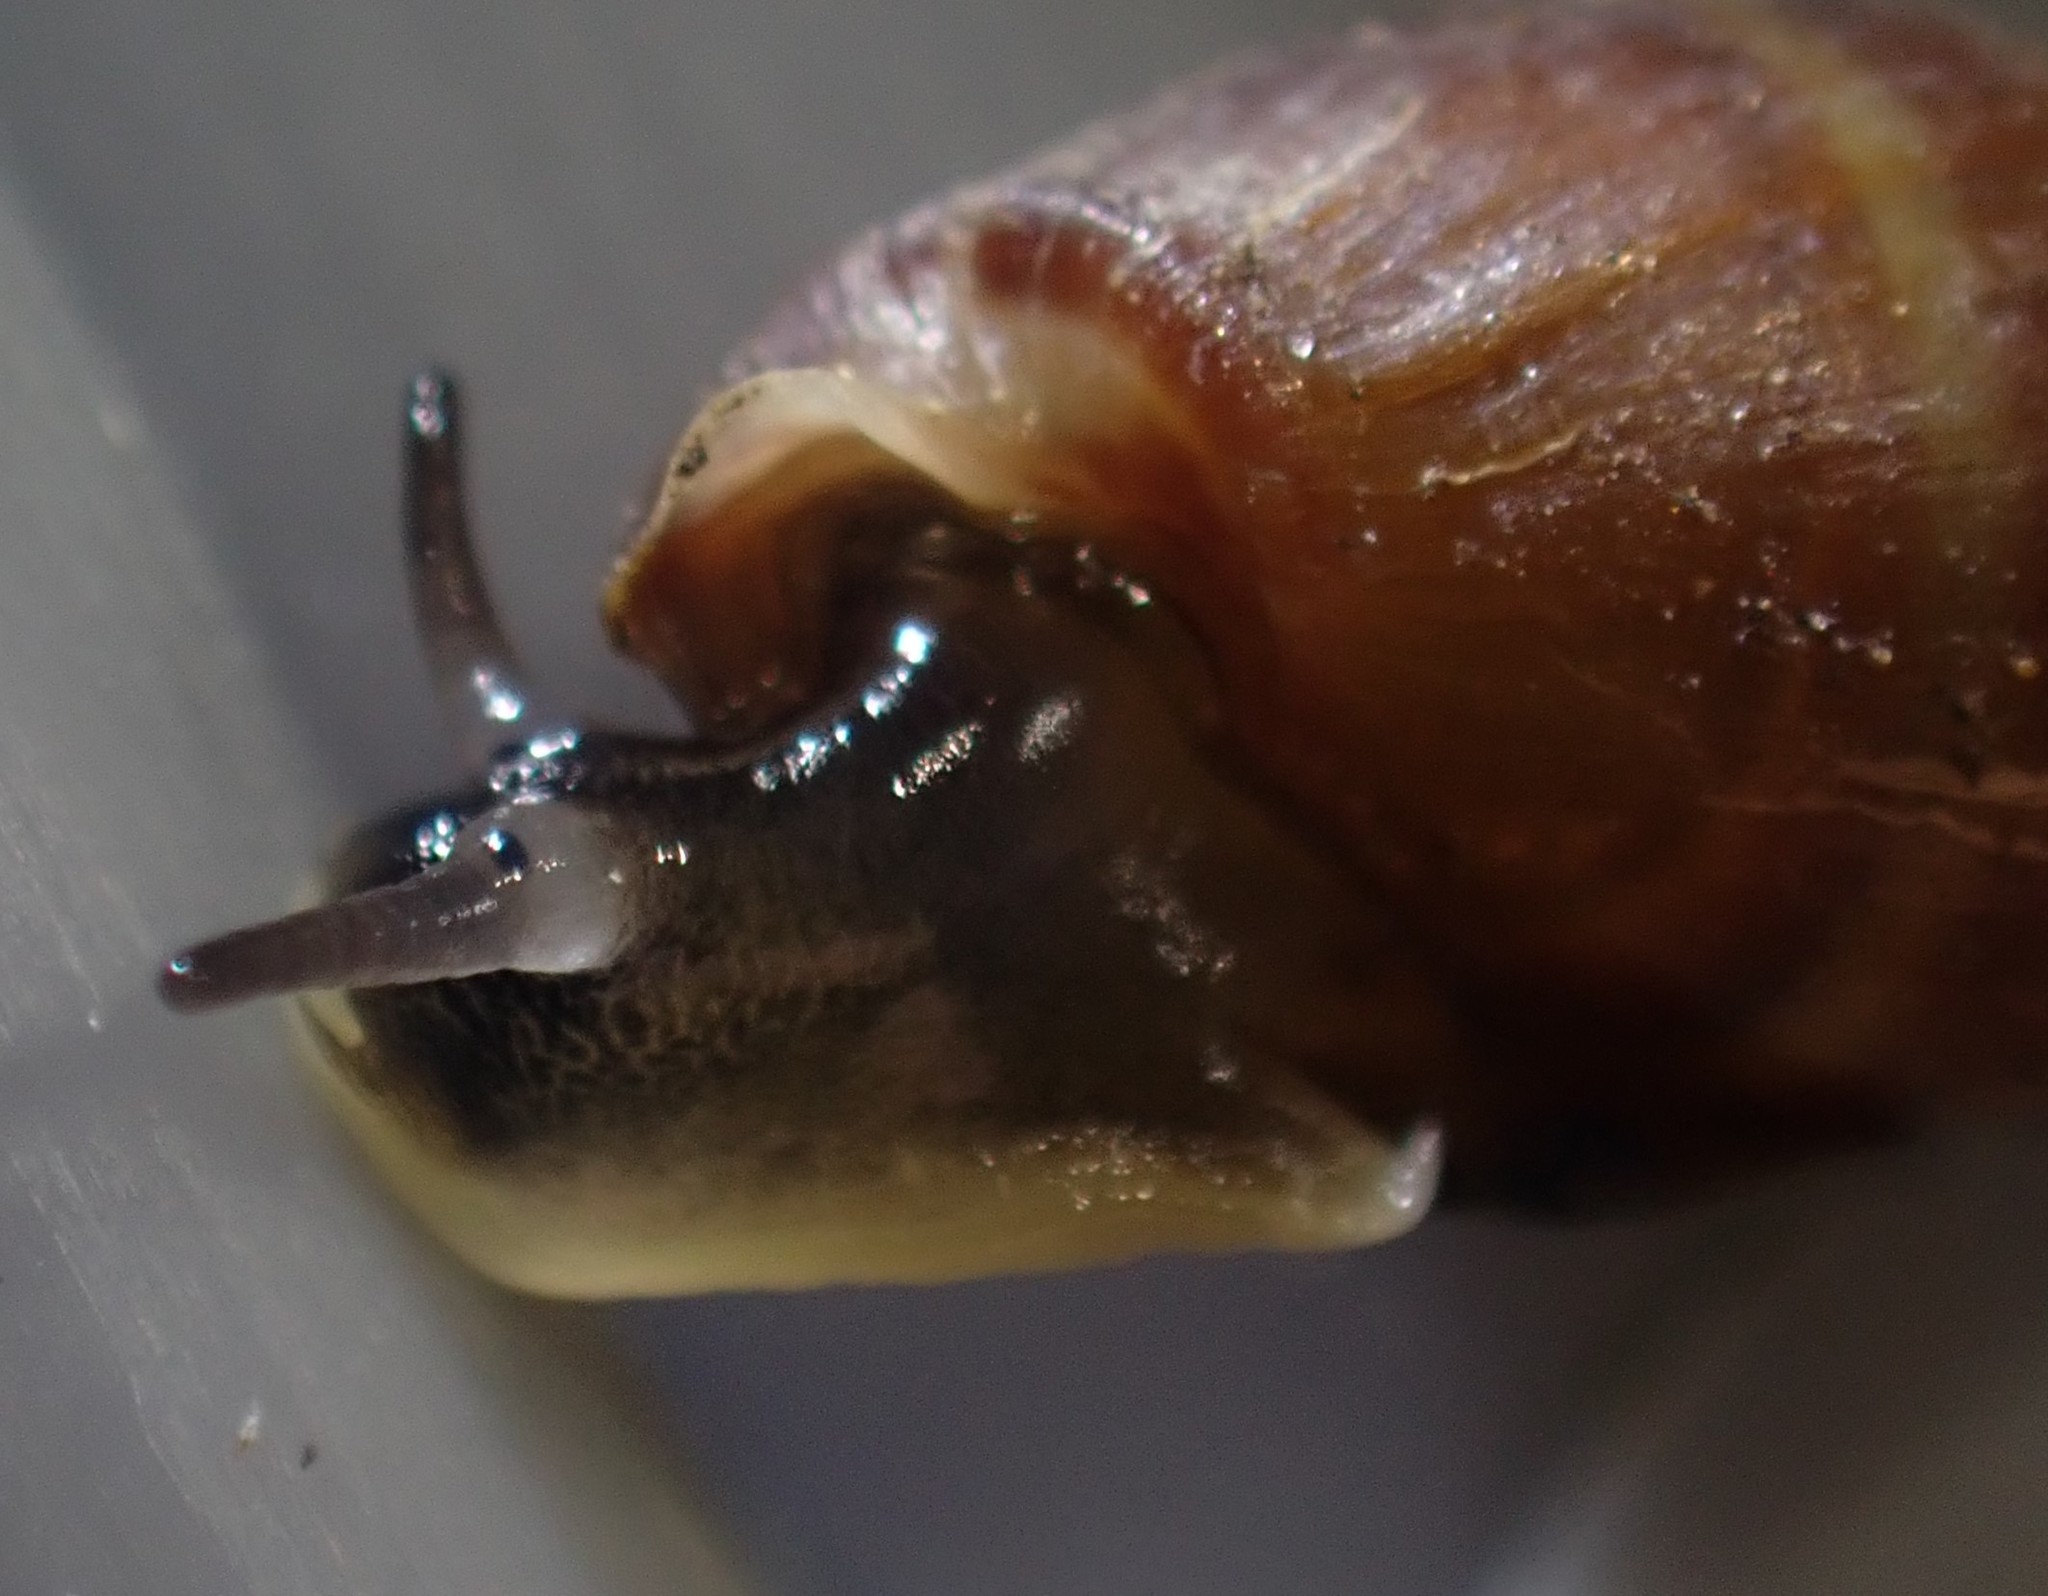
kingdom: Animalia
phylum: Mollusca
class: Gastropoda
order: Ellobiida
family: Ellobiidae
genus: Pleuroloba
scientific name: Pleuroloba costellaris
